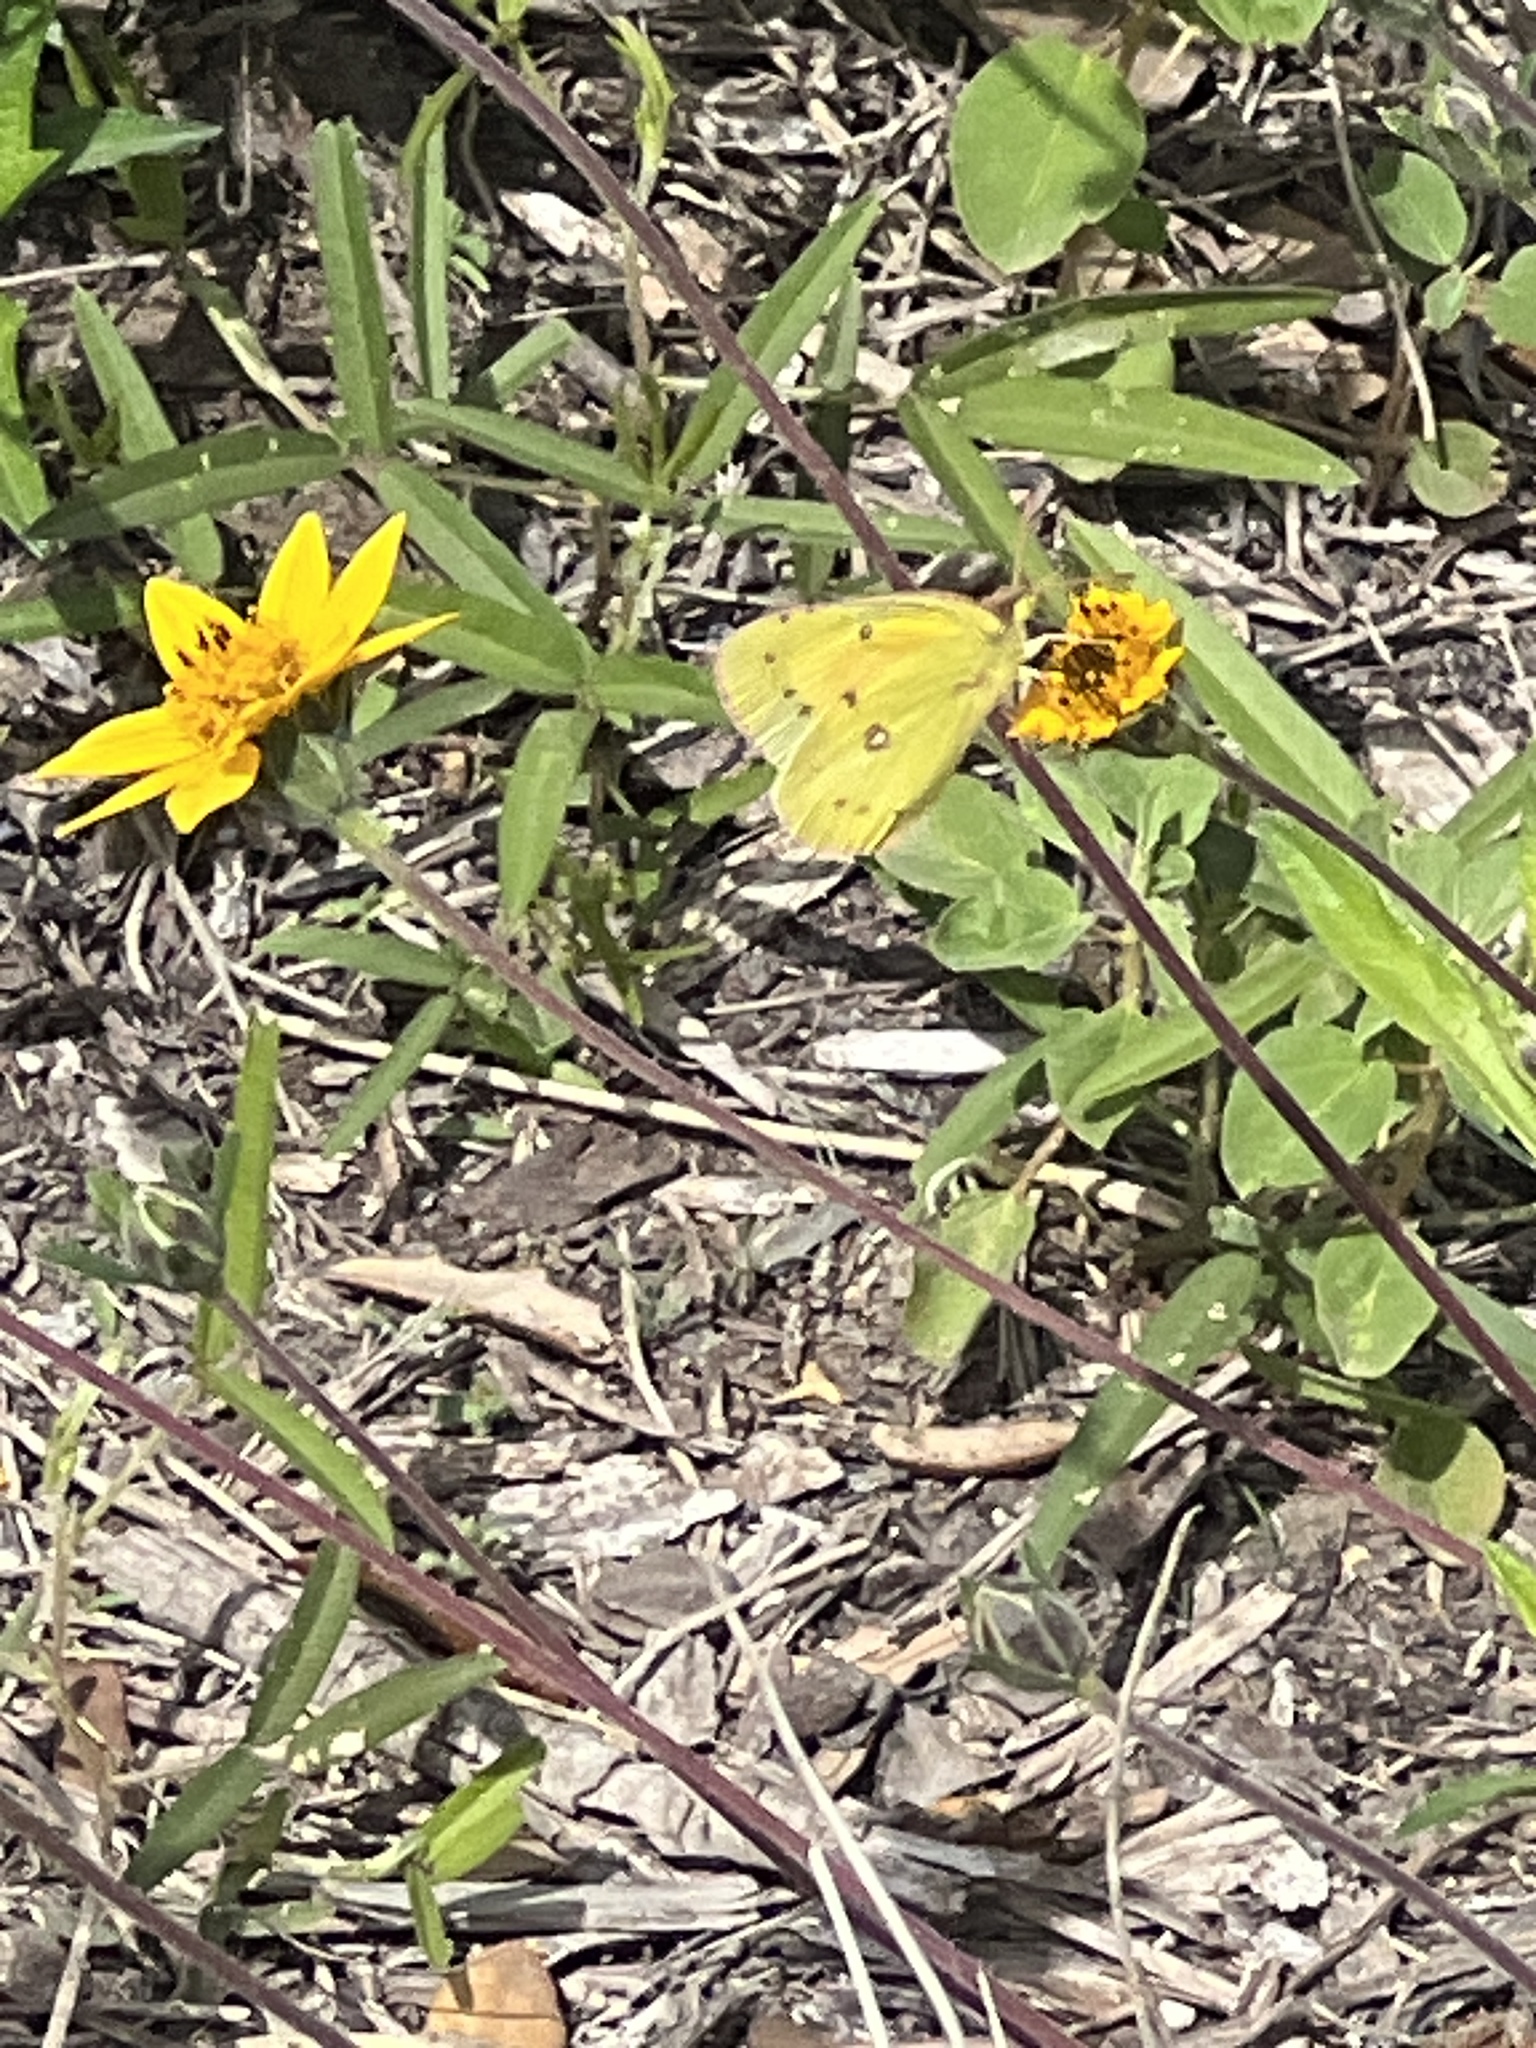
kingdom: Animalia
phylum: Arthropoda
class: Insecta
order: Lepidoptera
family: Pieridae
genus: Colias
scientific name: Colias eurytheme
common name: Alfalfa butterfly
